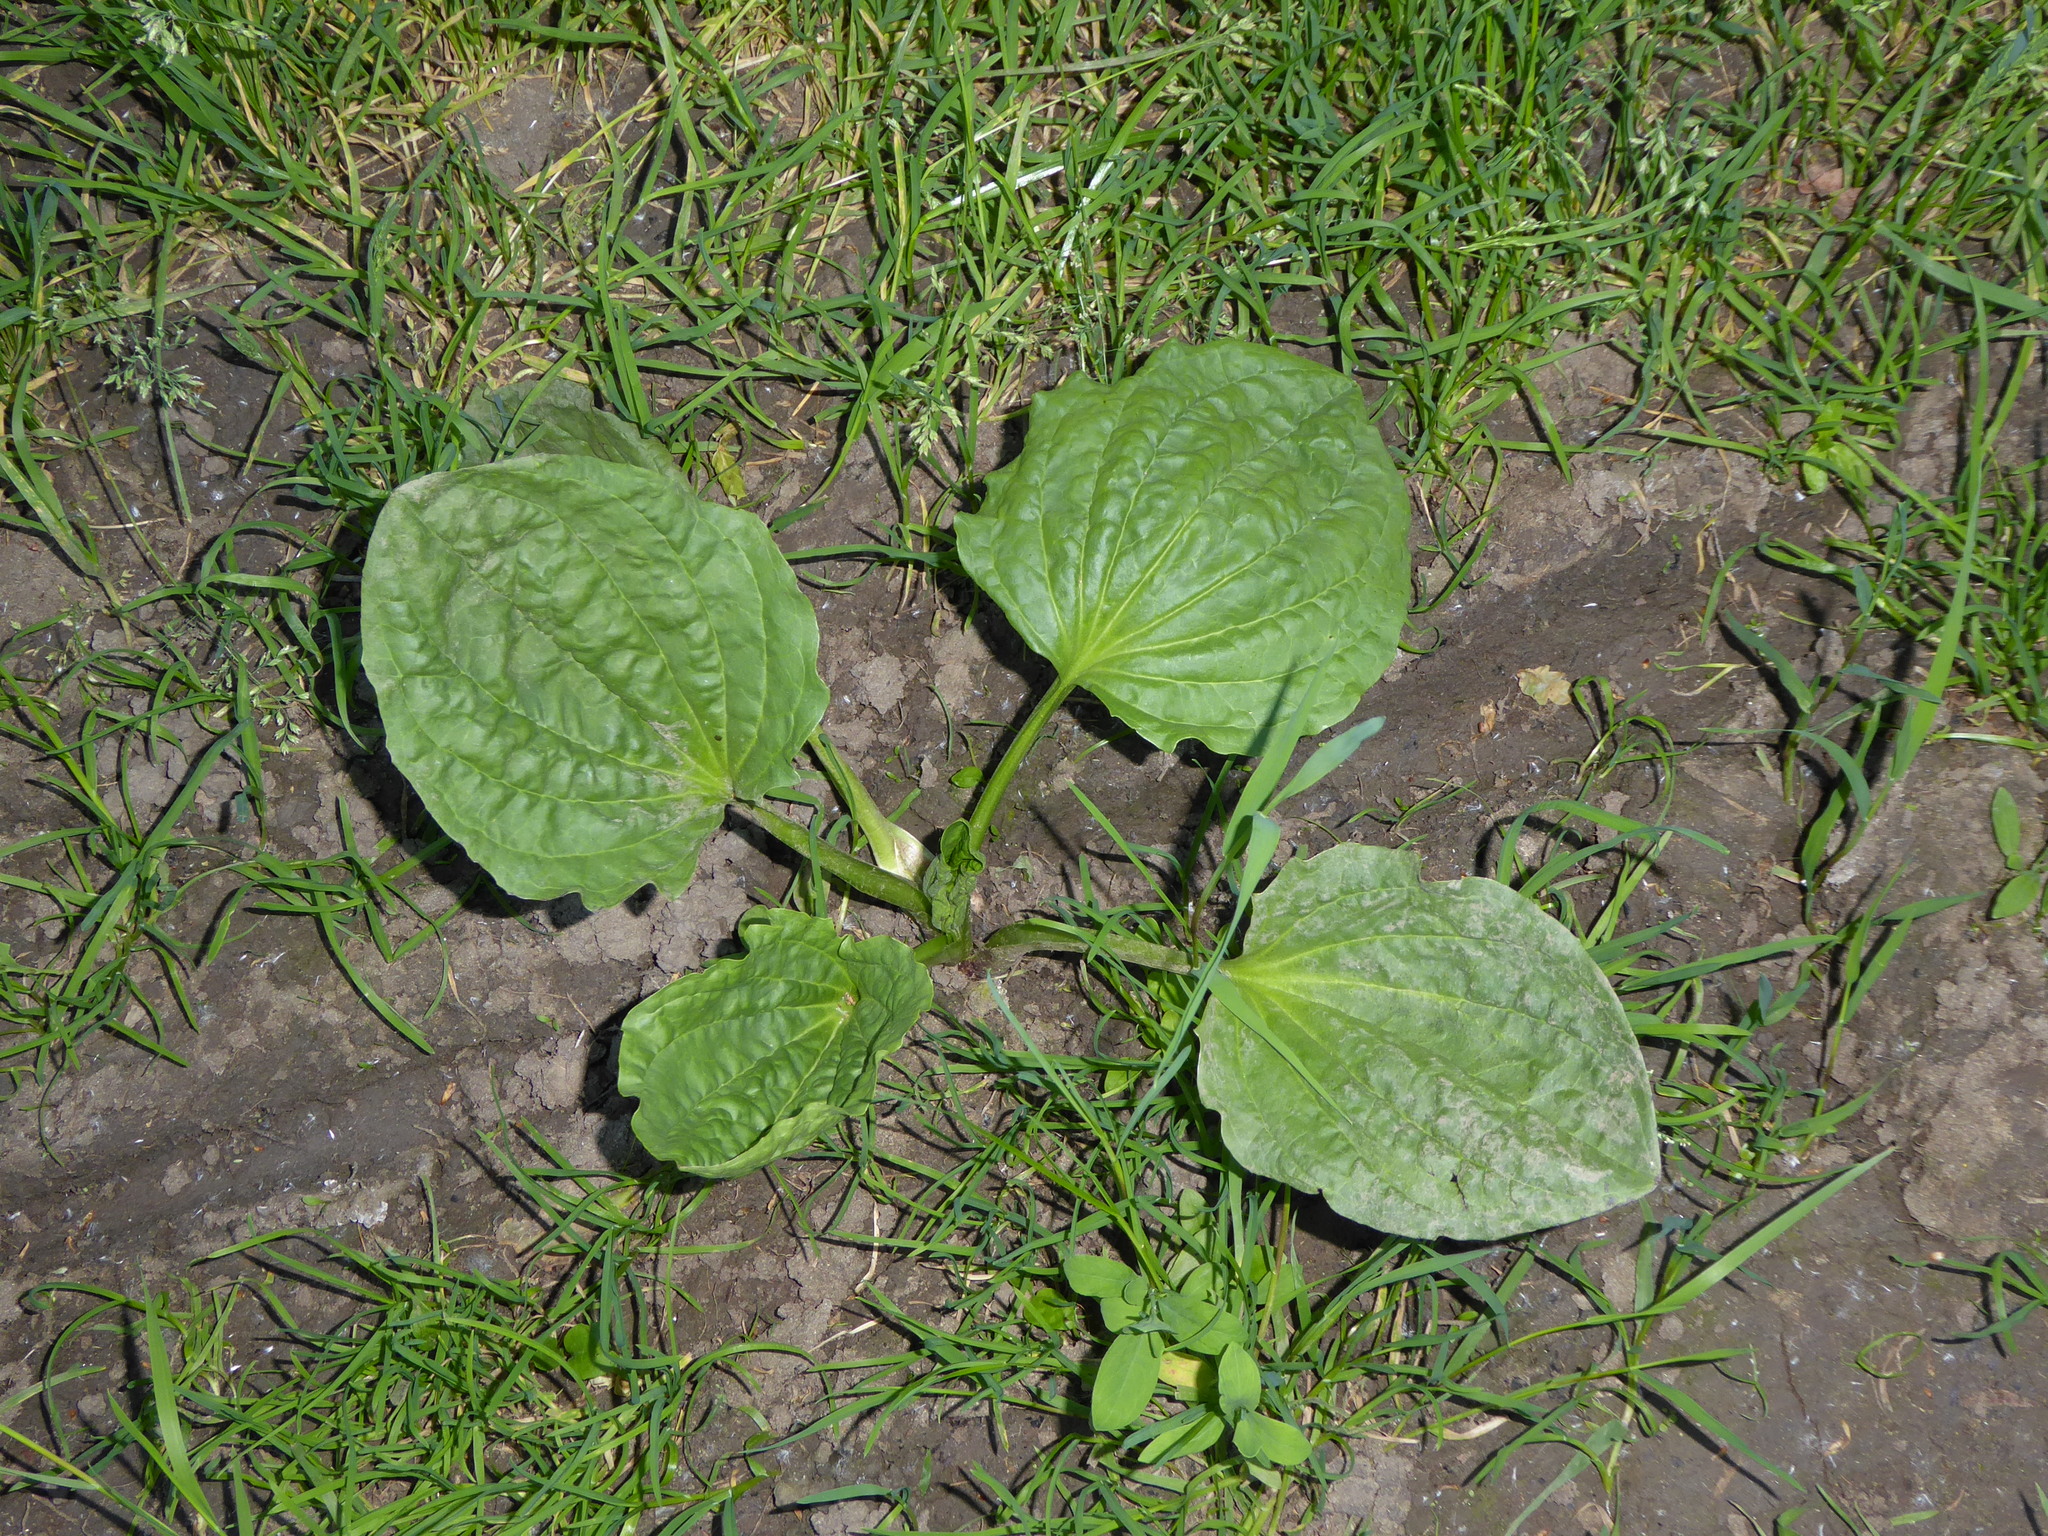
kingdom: Plantae
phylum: Tracheophyta
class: Magnoliopsida
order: Lamiales
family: Plantaginaceae
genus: Plantago
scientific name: Plantago major
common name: Common plantain
